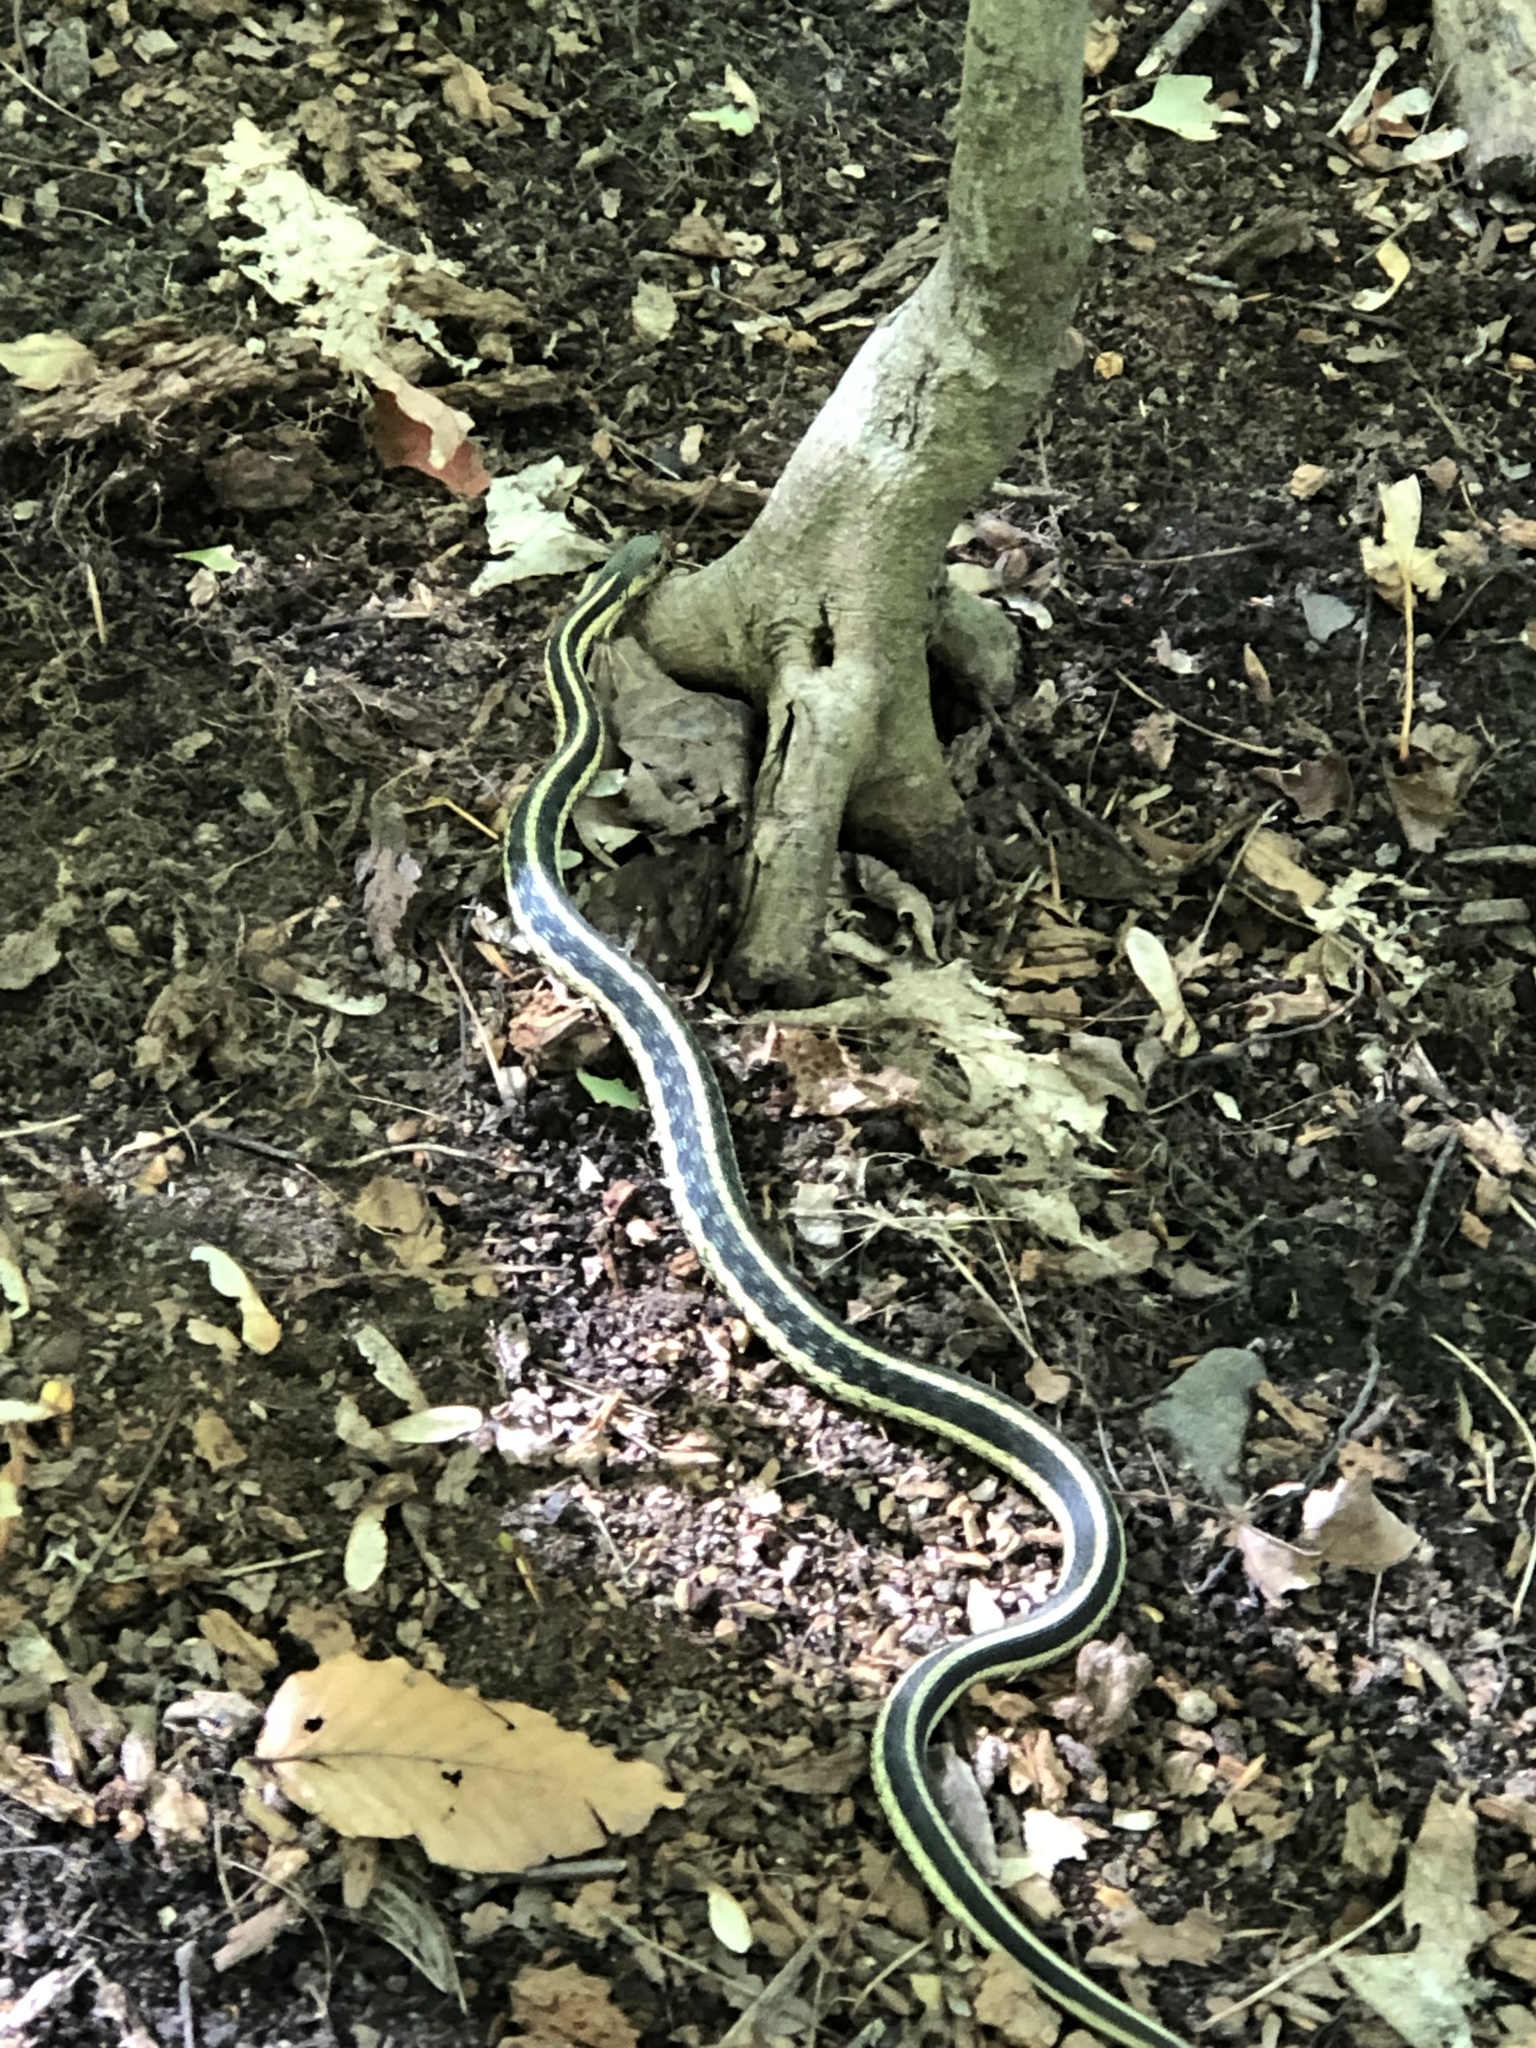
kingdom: Animalia
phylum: Chordata
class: Squamata
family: Colubridae
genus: Thamnophis
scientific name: Thamnophis sirtalis
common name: Common garter snake
